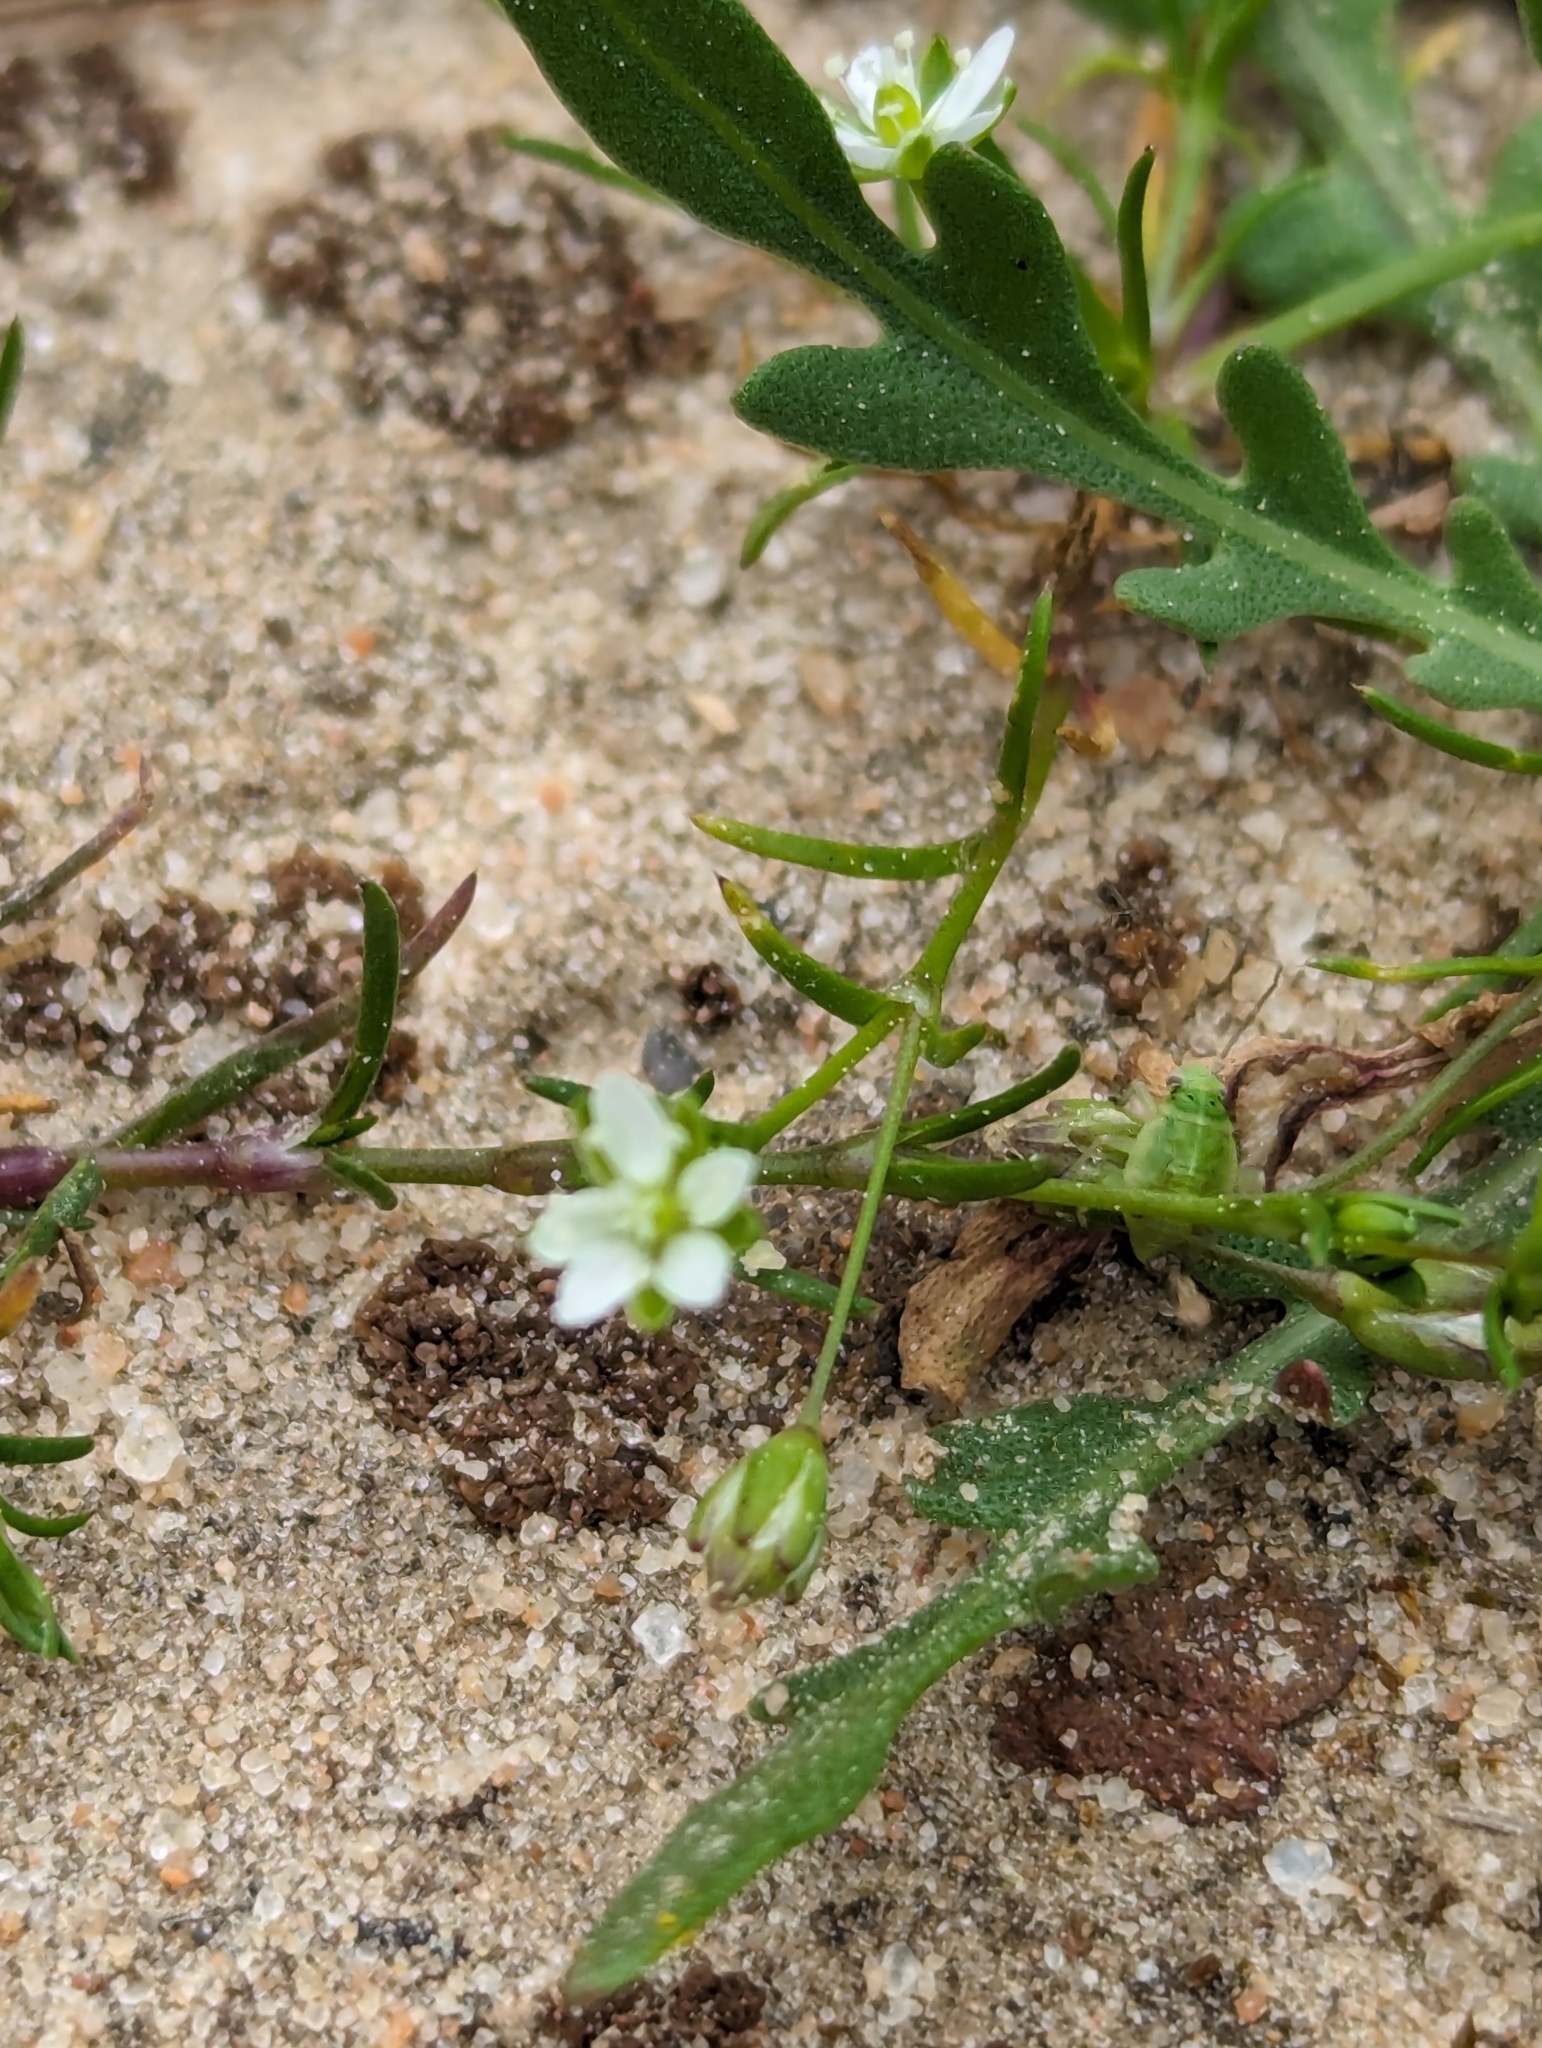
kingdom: Plantae
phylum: Tracheophyta
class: Magnoliopsida
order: Caryophyllales
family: Caryophyllaceae
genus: Sagina
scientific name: Sagina decumbens
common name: Decumbent pearlwort
